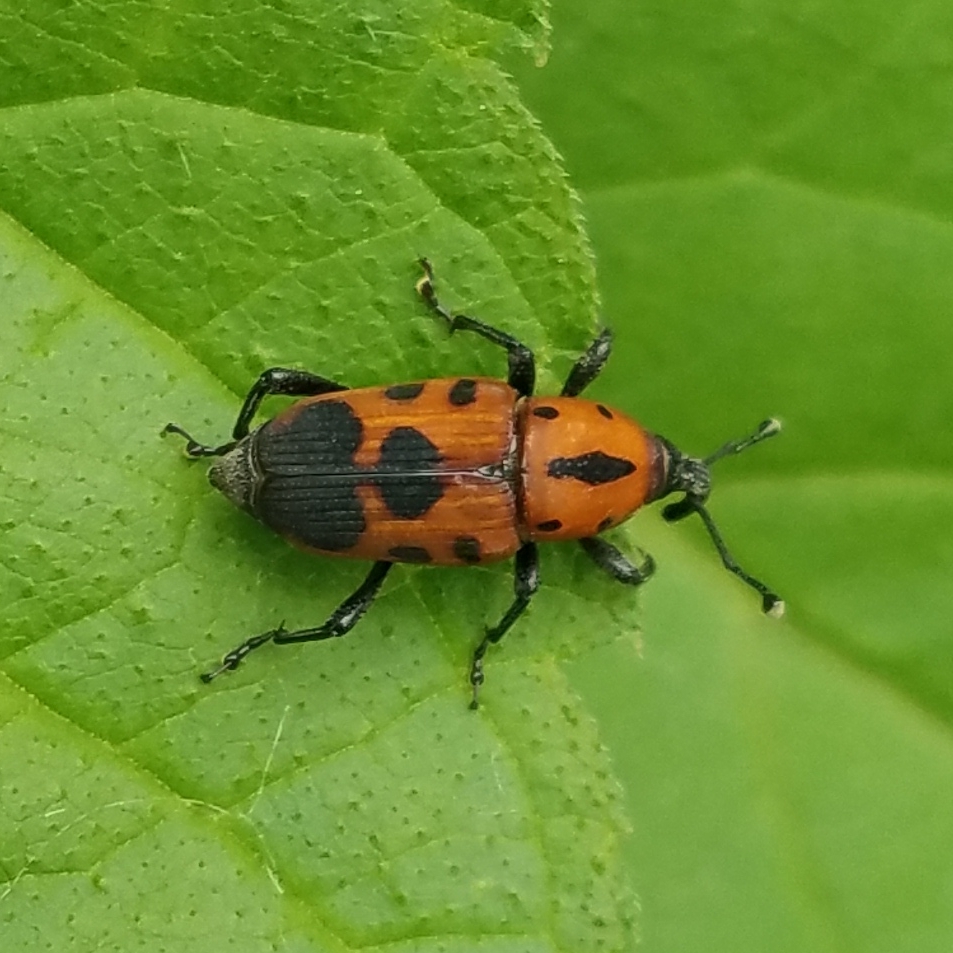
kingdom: Animalia
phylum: Arthropoda
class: Insecta
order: Coleoptera
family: Dryophthoridae
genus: Rhodobaenus
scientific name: Rhodobaenus quinquepunctatus
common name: Cocklebur weevil
